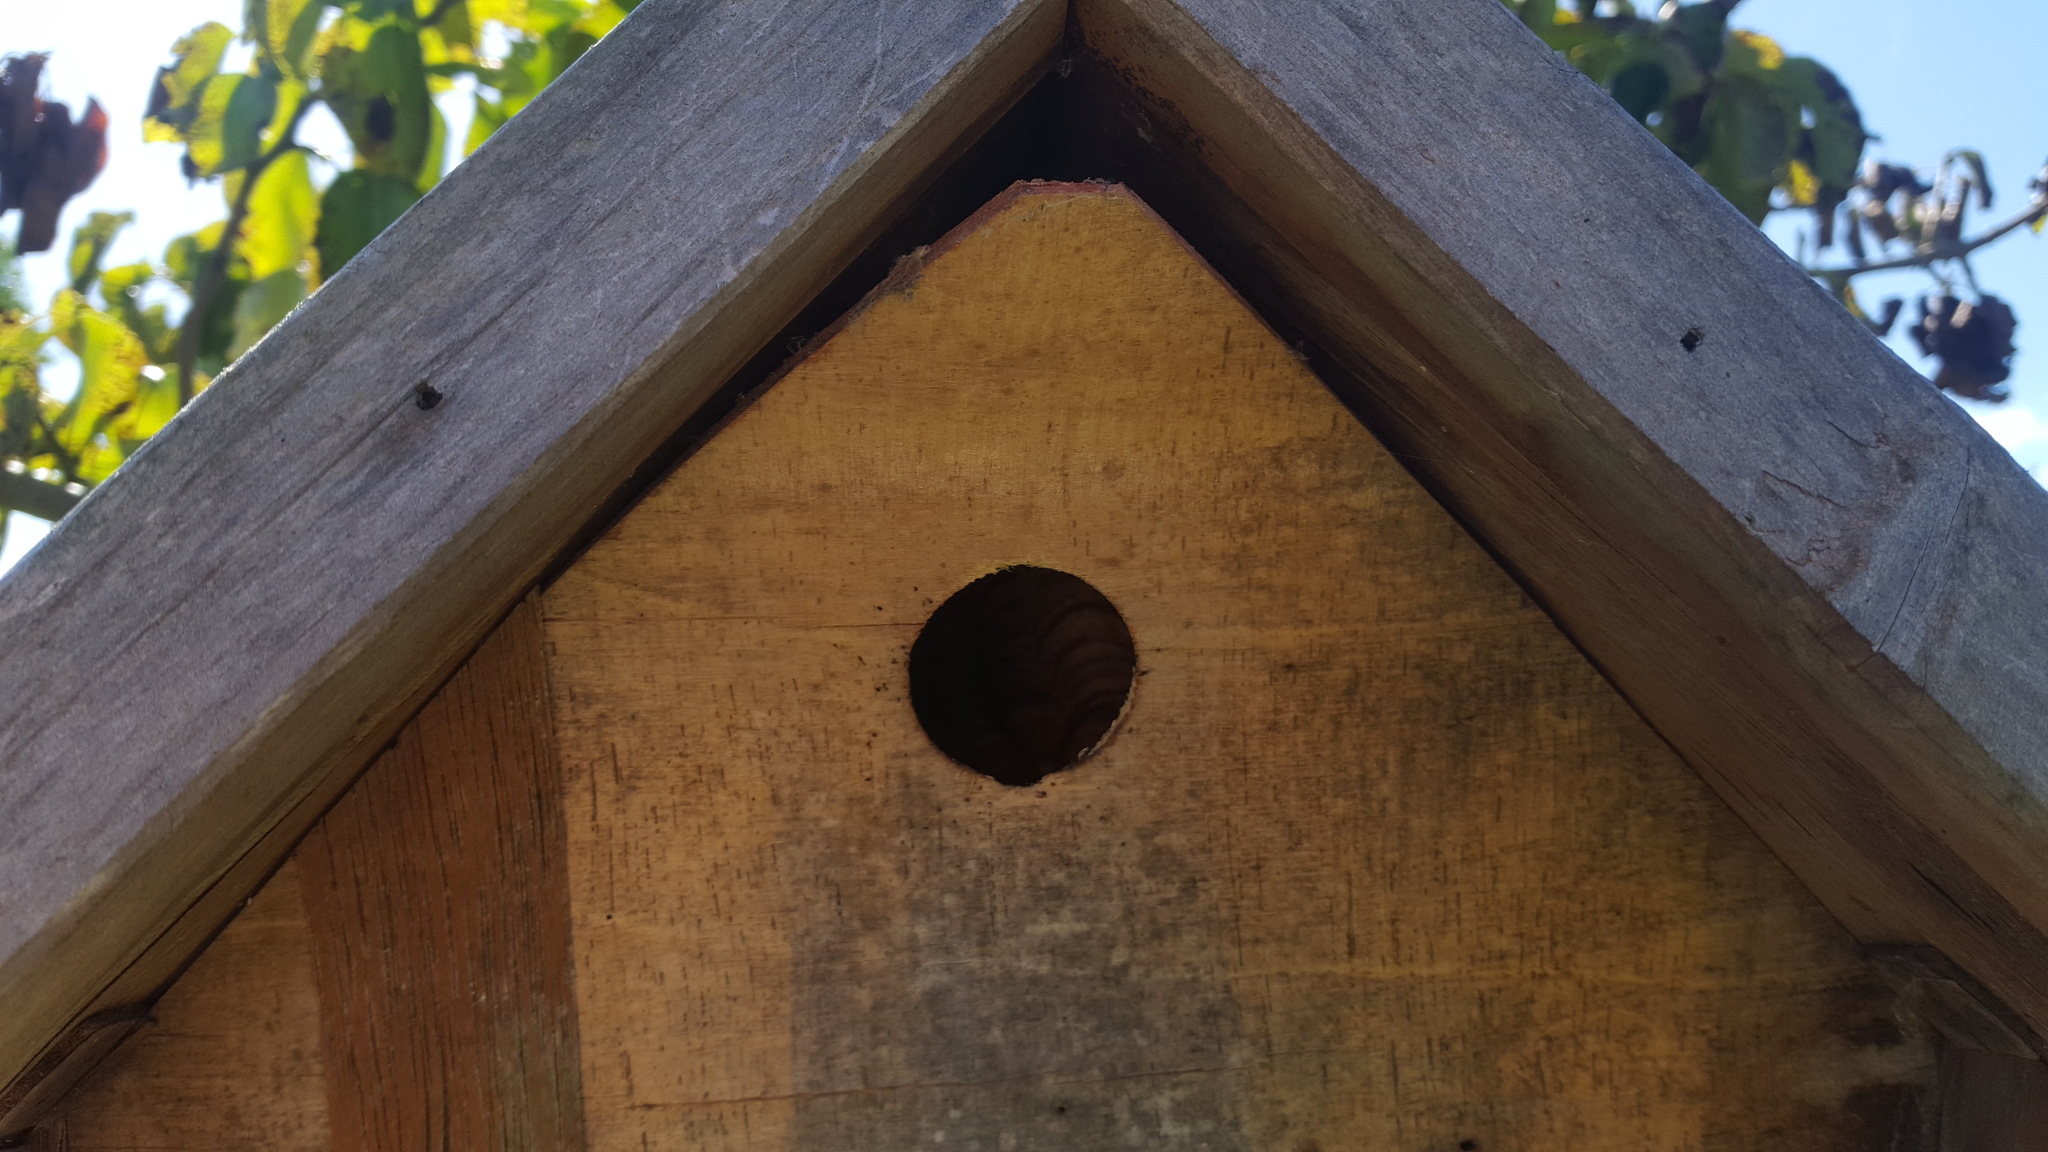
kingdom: Animalia
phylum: Arthropoda
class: Insecta
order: Hymenoptera
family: Vespidae
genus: Vespa
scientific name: Vespa velutina
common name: Asian hornet
